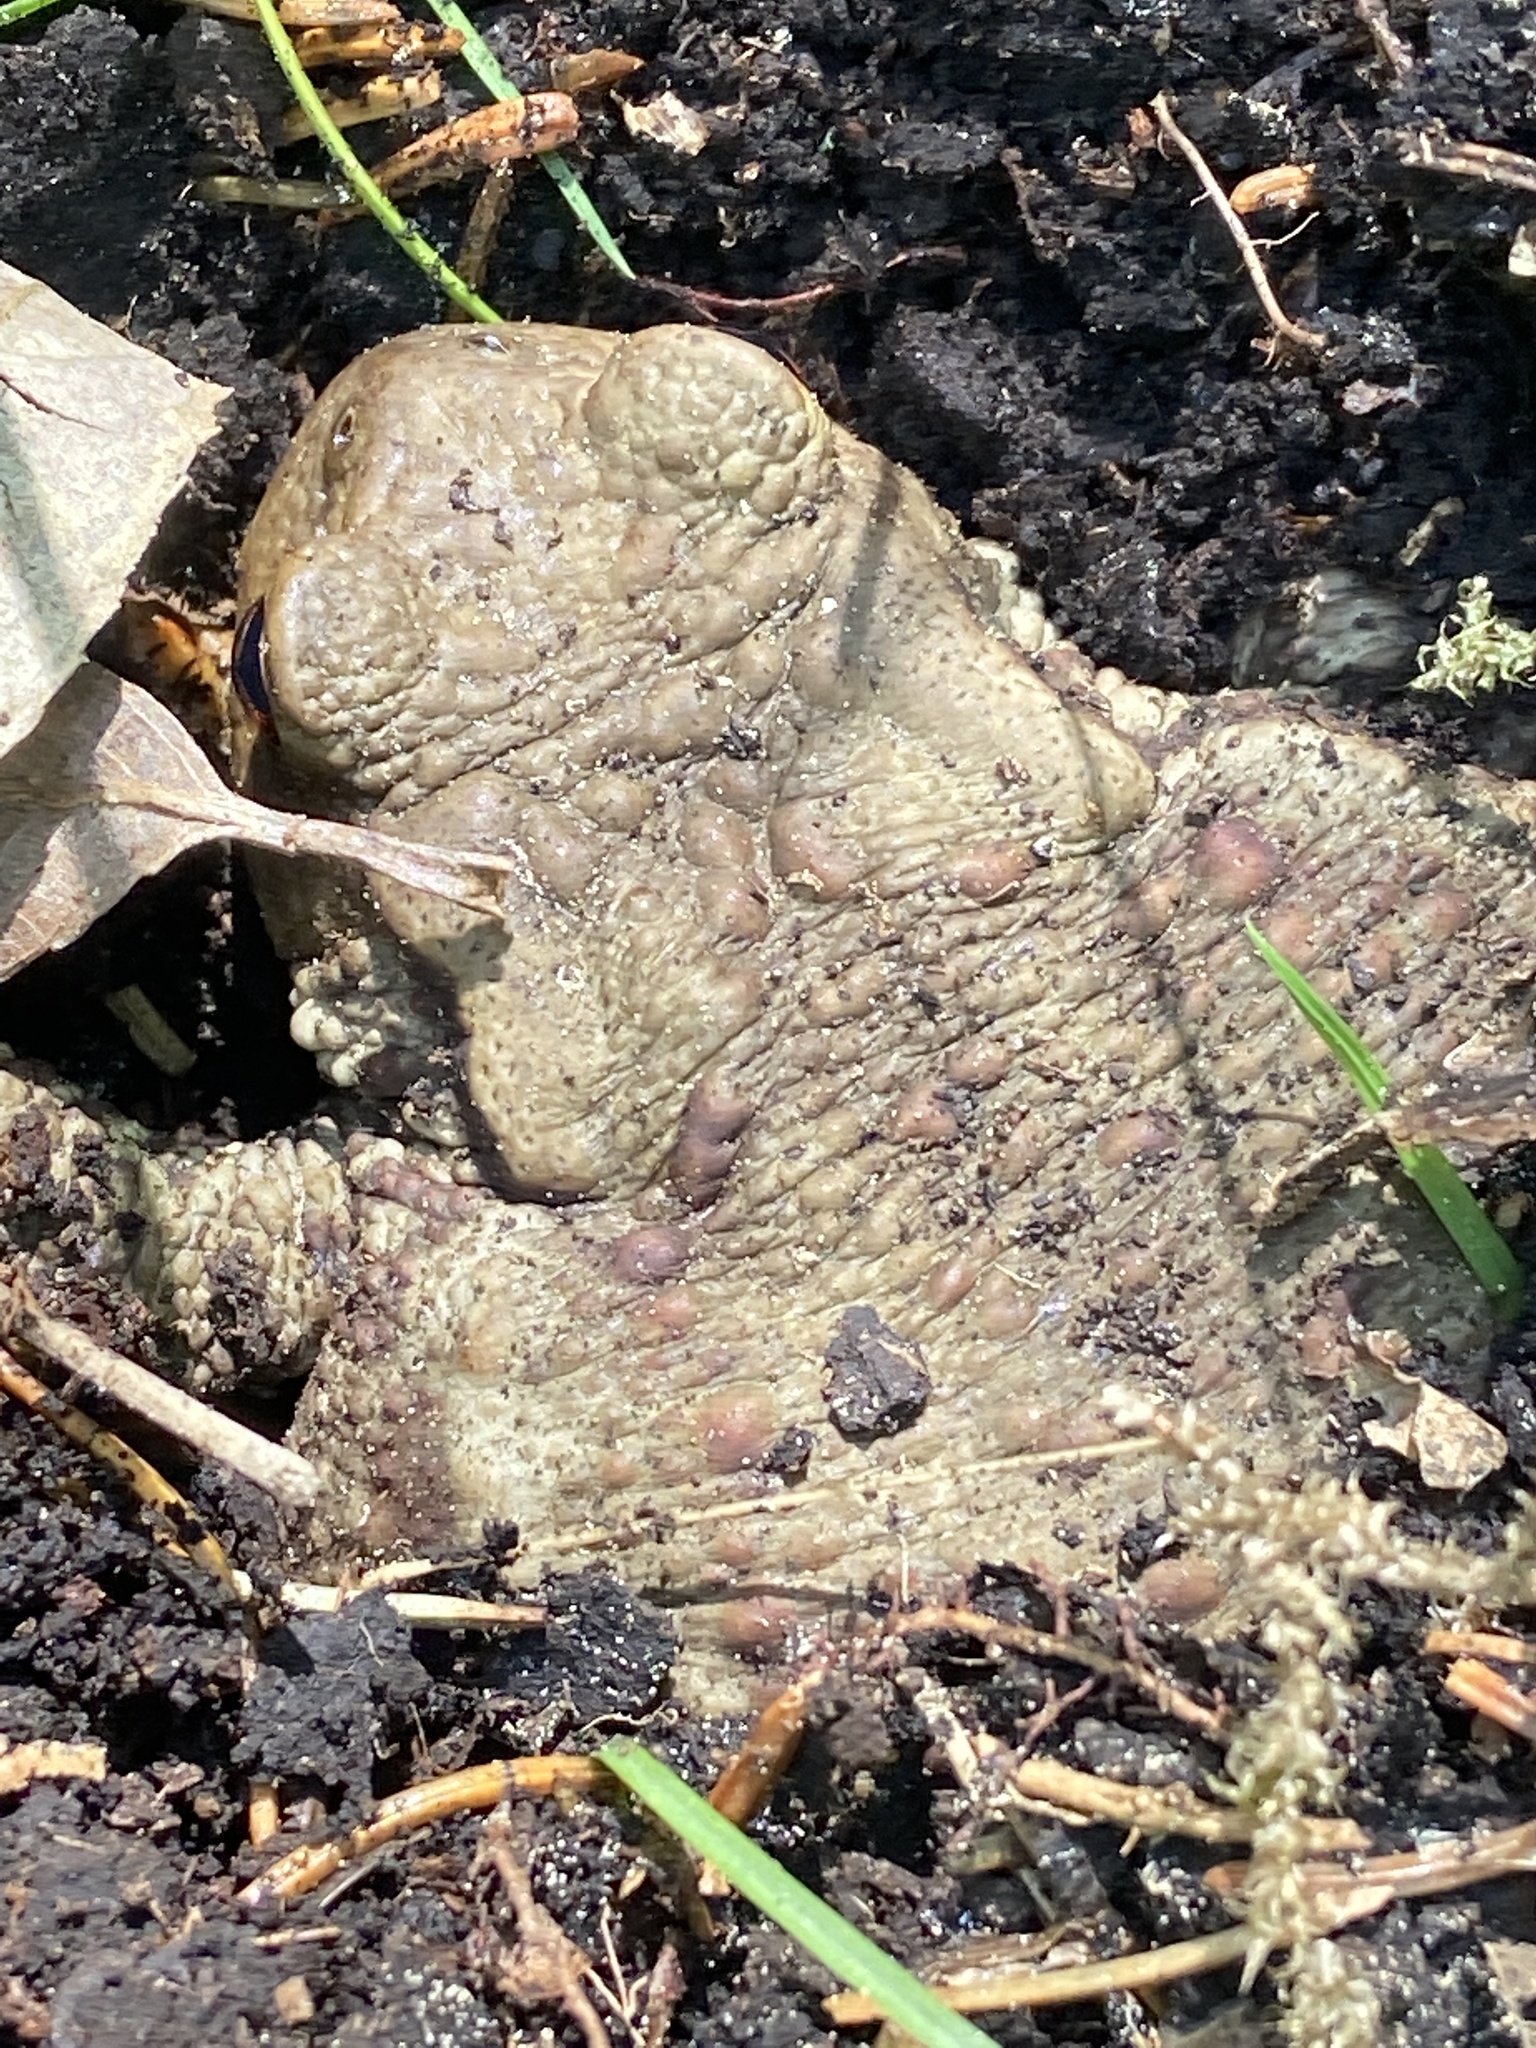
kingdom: Animalia
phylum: Chordata
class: Amphibia
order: Anura
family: Bufonidae
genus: Bufo
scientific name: Bufo bufo
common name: Common toad
